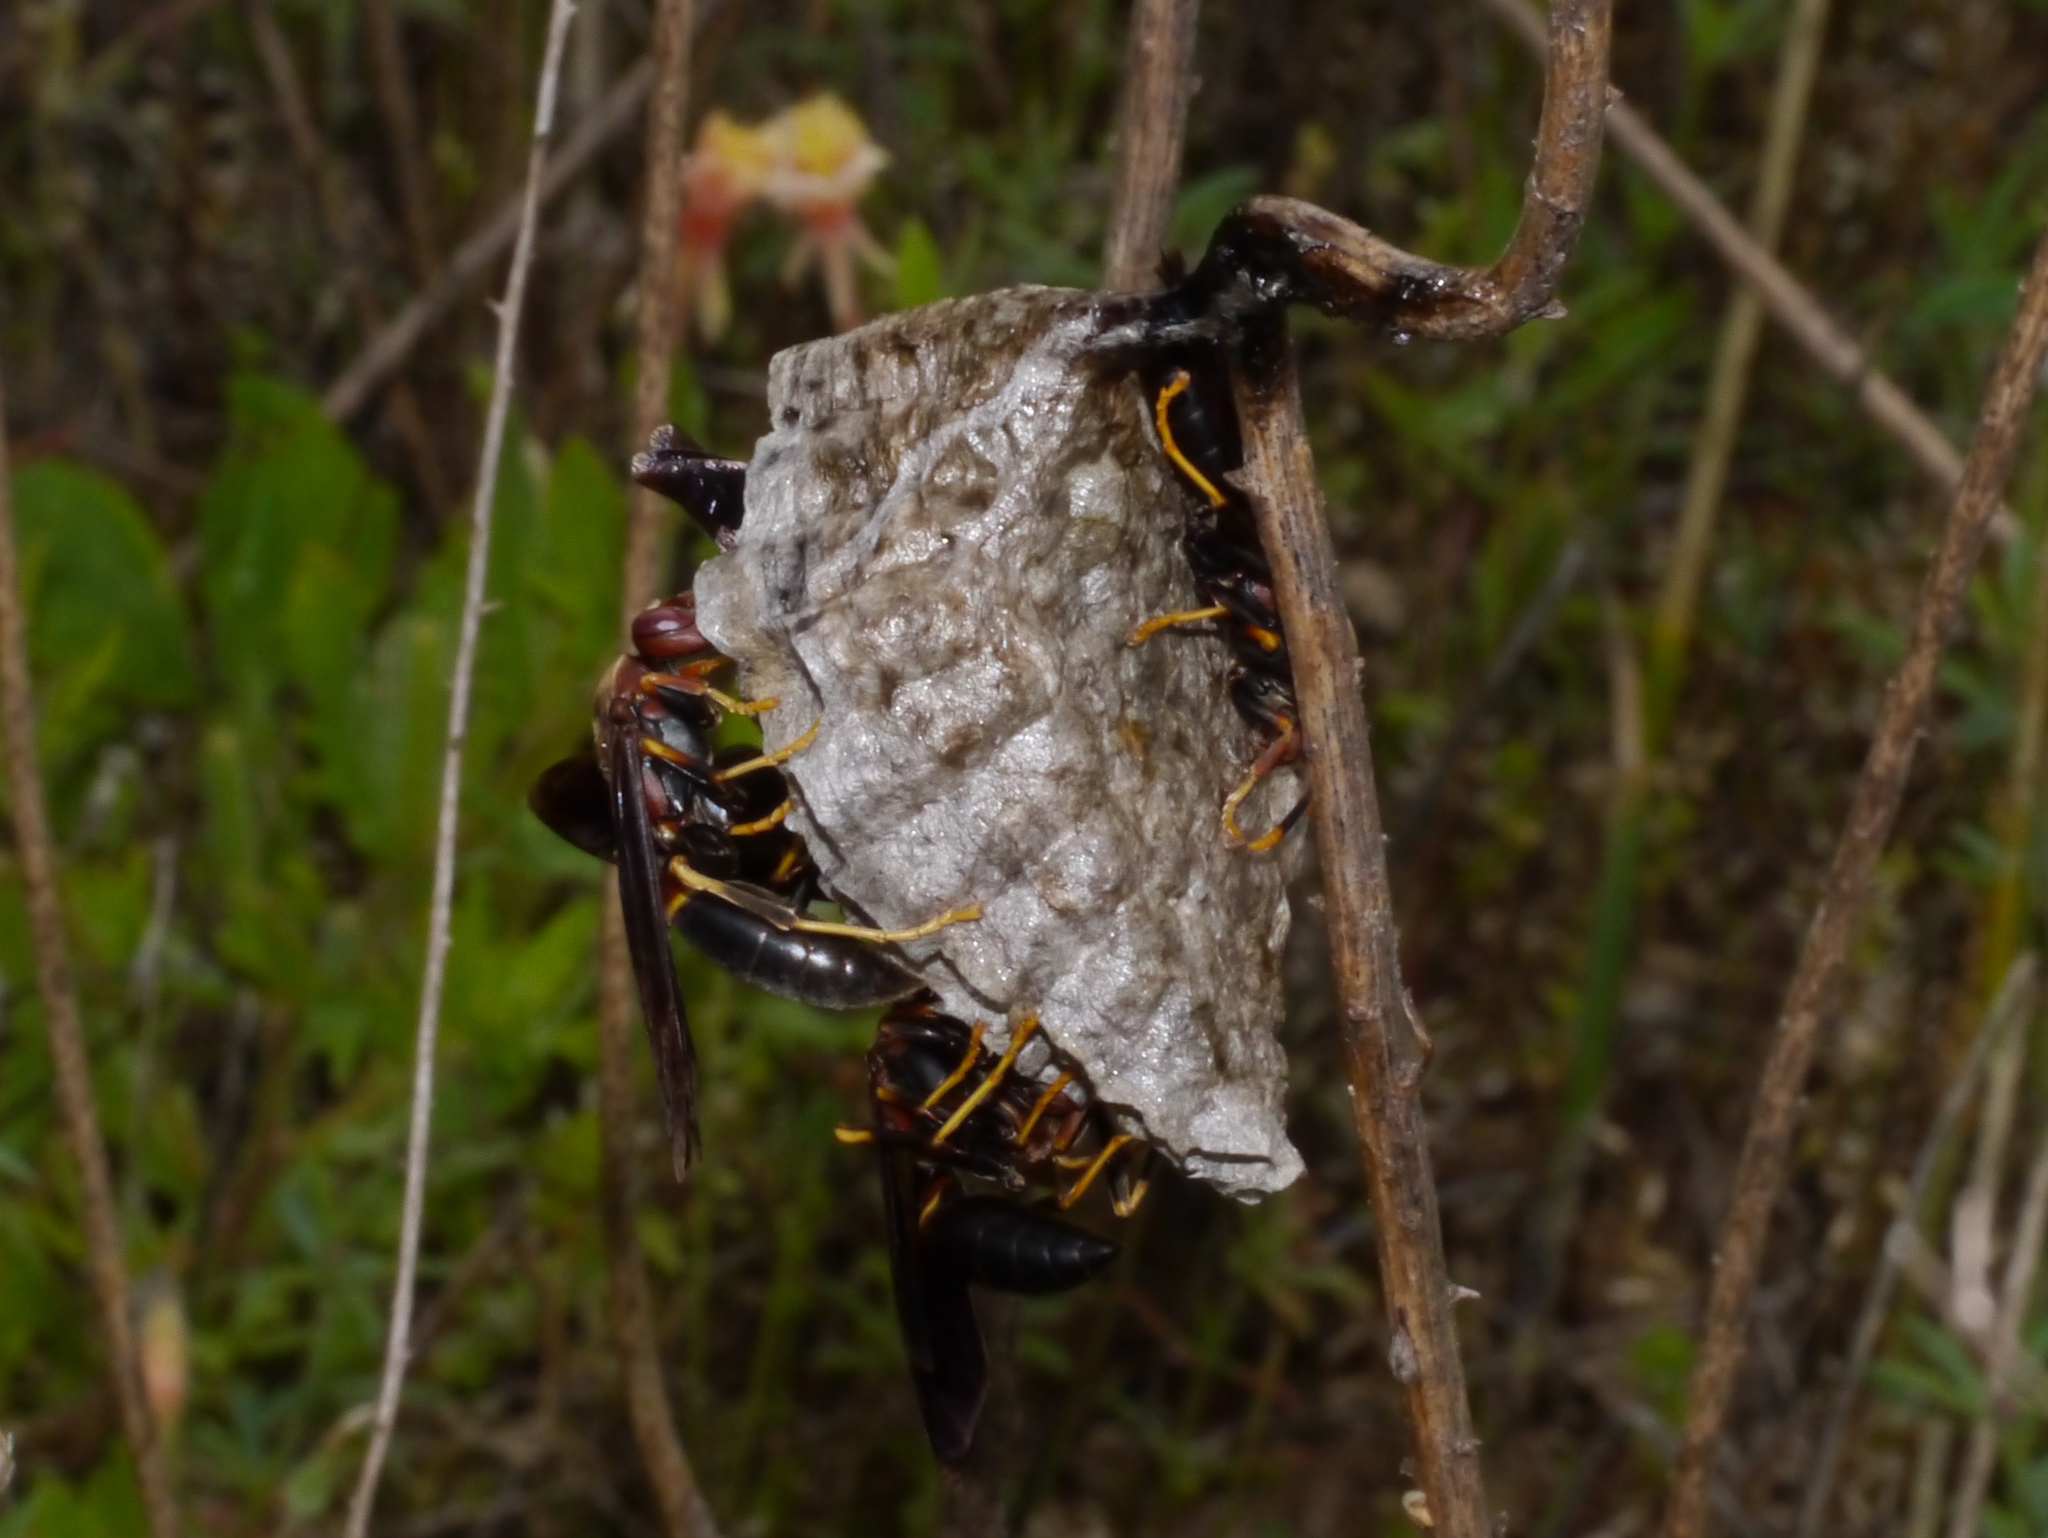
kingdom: Animalia
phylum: Arthropoda
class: Insecta
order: Hymenoptera
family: Eumenidae
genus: Polistes
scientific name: Polistes annularis
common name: Ringed paper wasp
